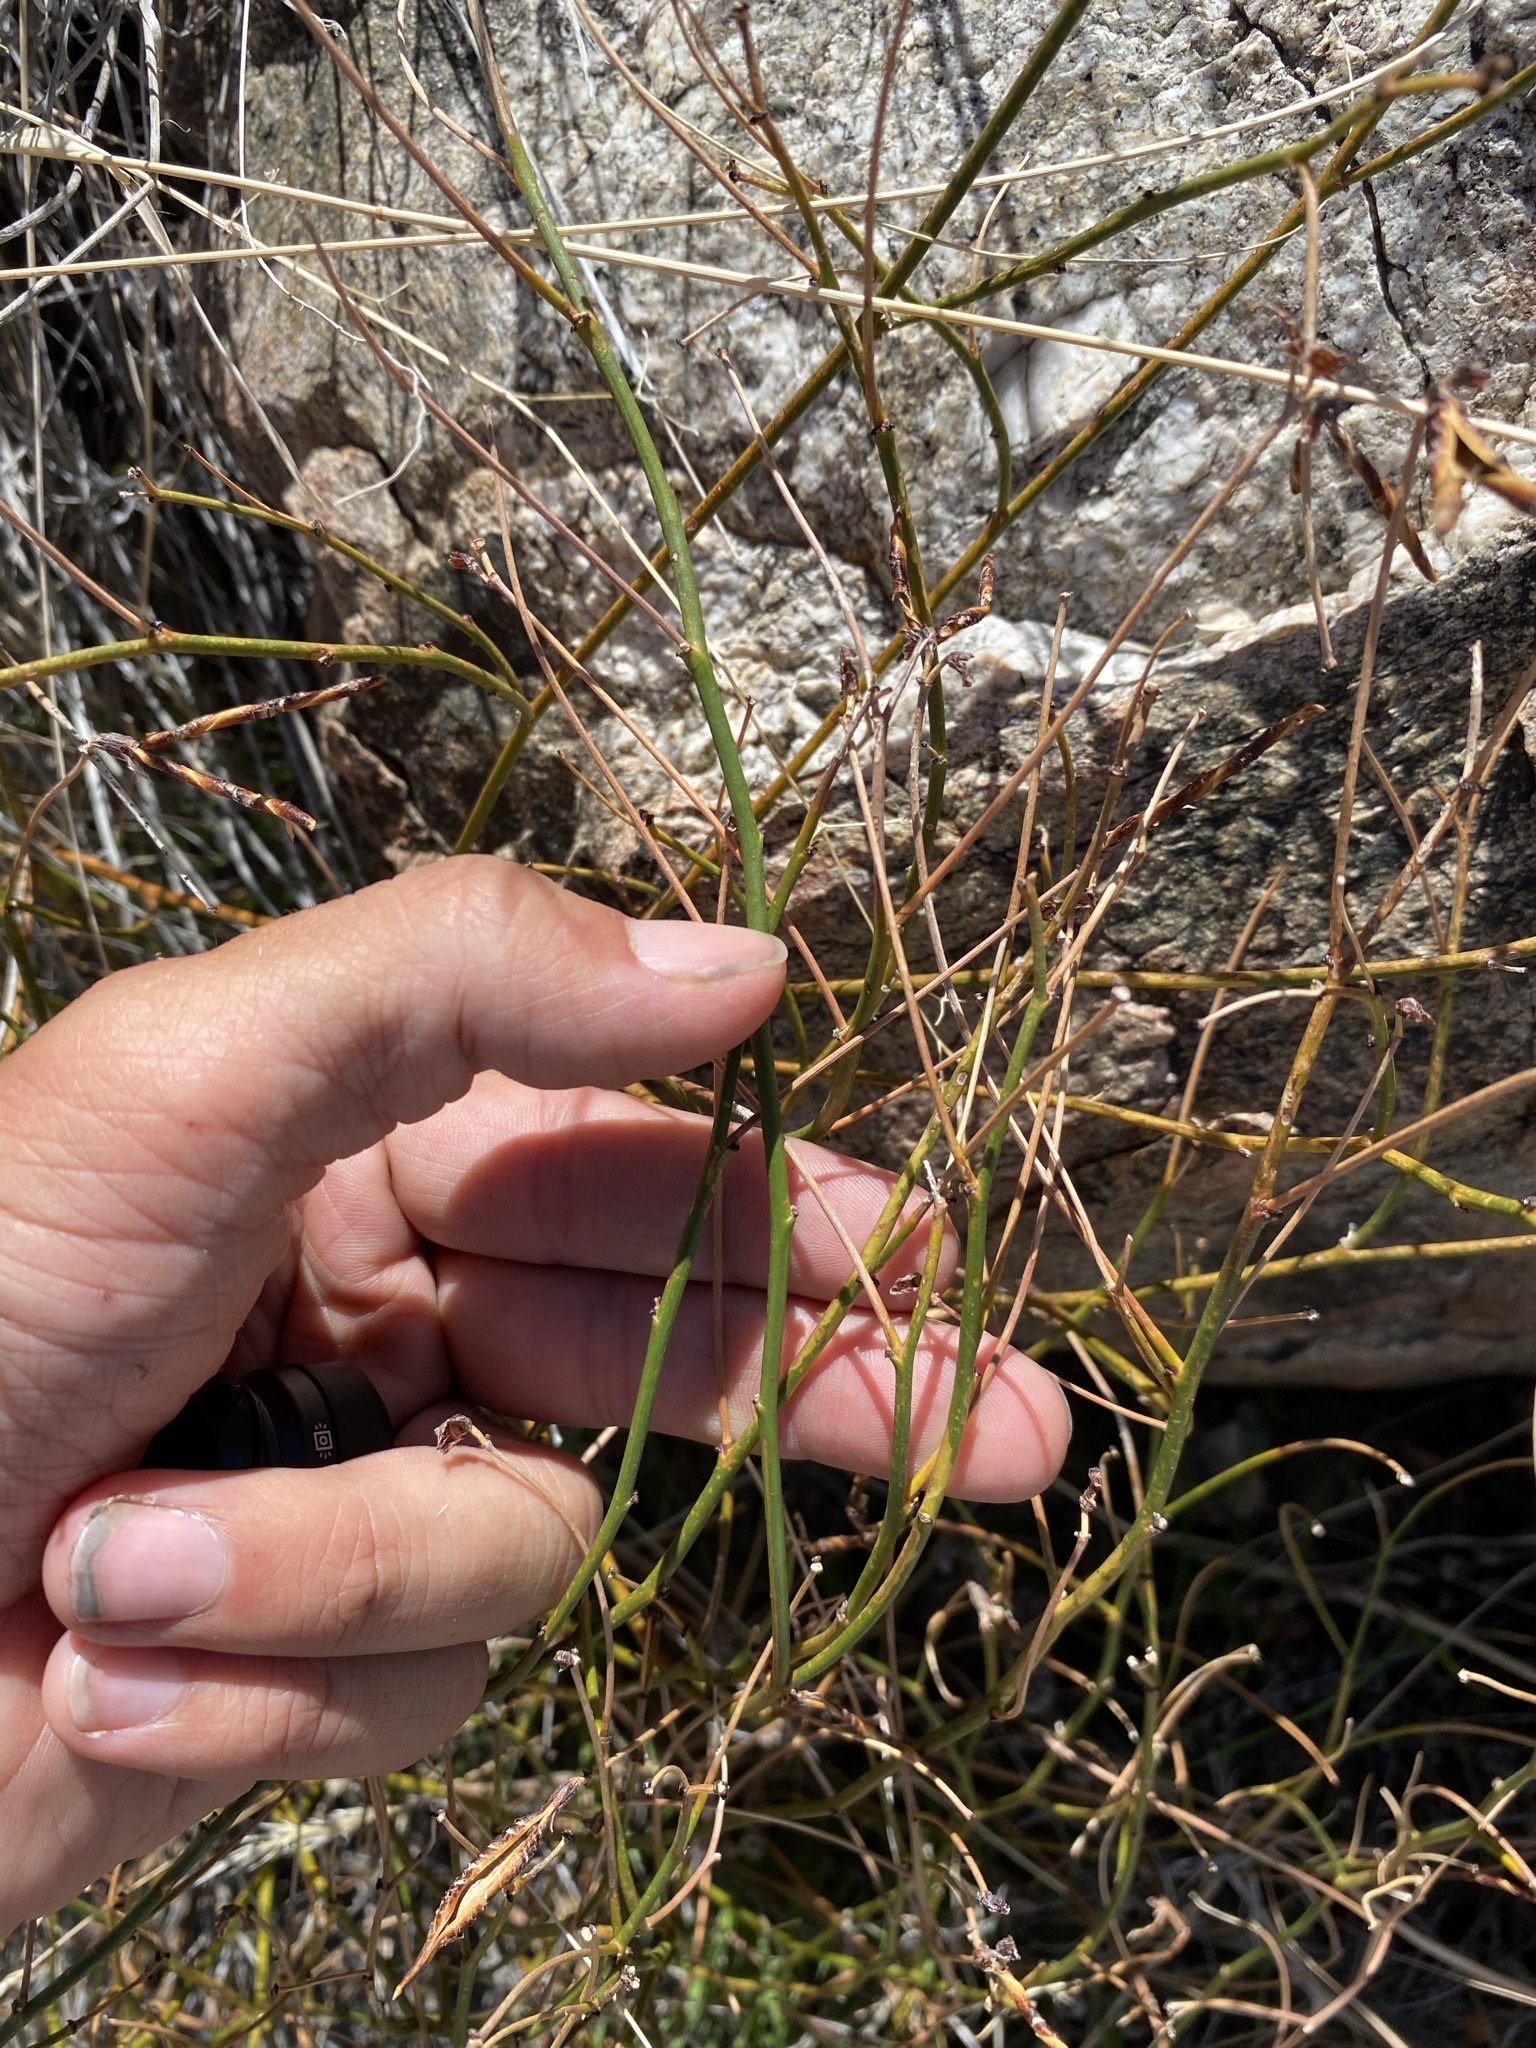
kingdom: Plantae
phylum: Tracheophyta
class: Magnoliopsida
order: Fabales
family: Fabaceae
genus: Acmispon
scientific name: Acmispon rigidus
